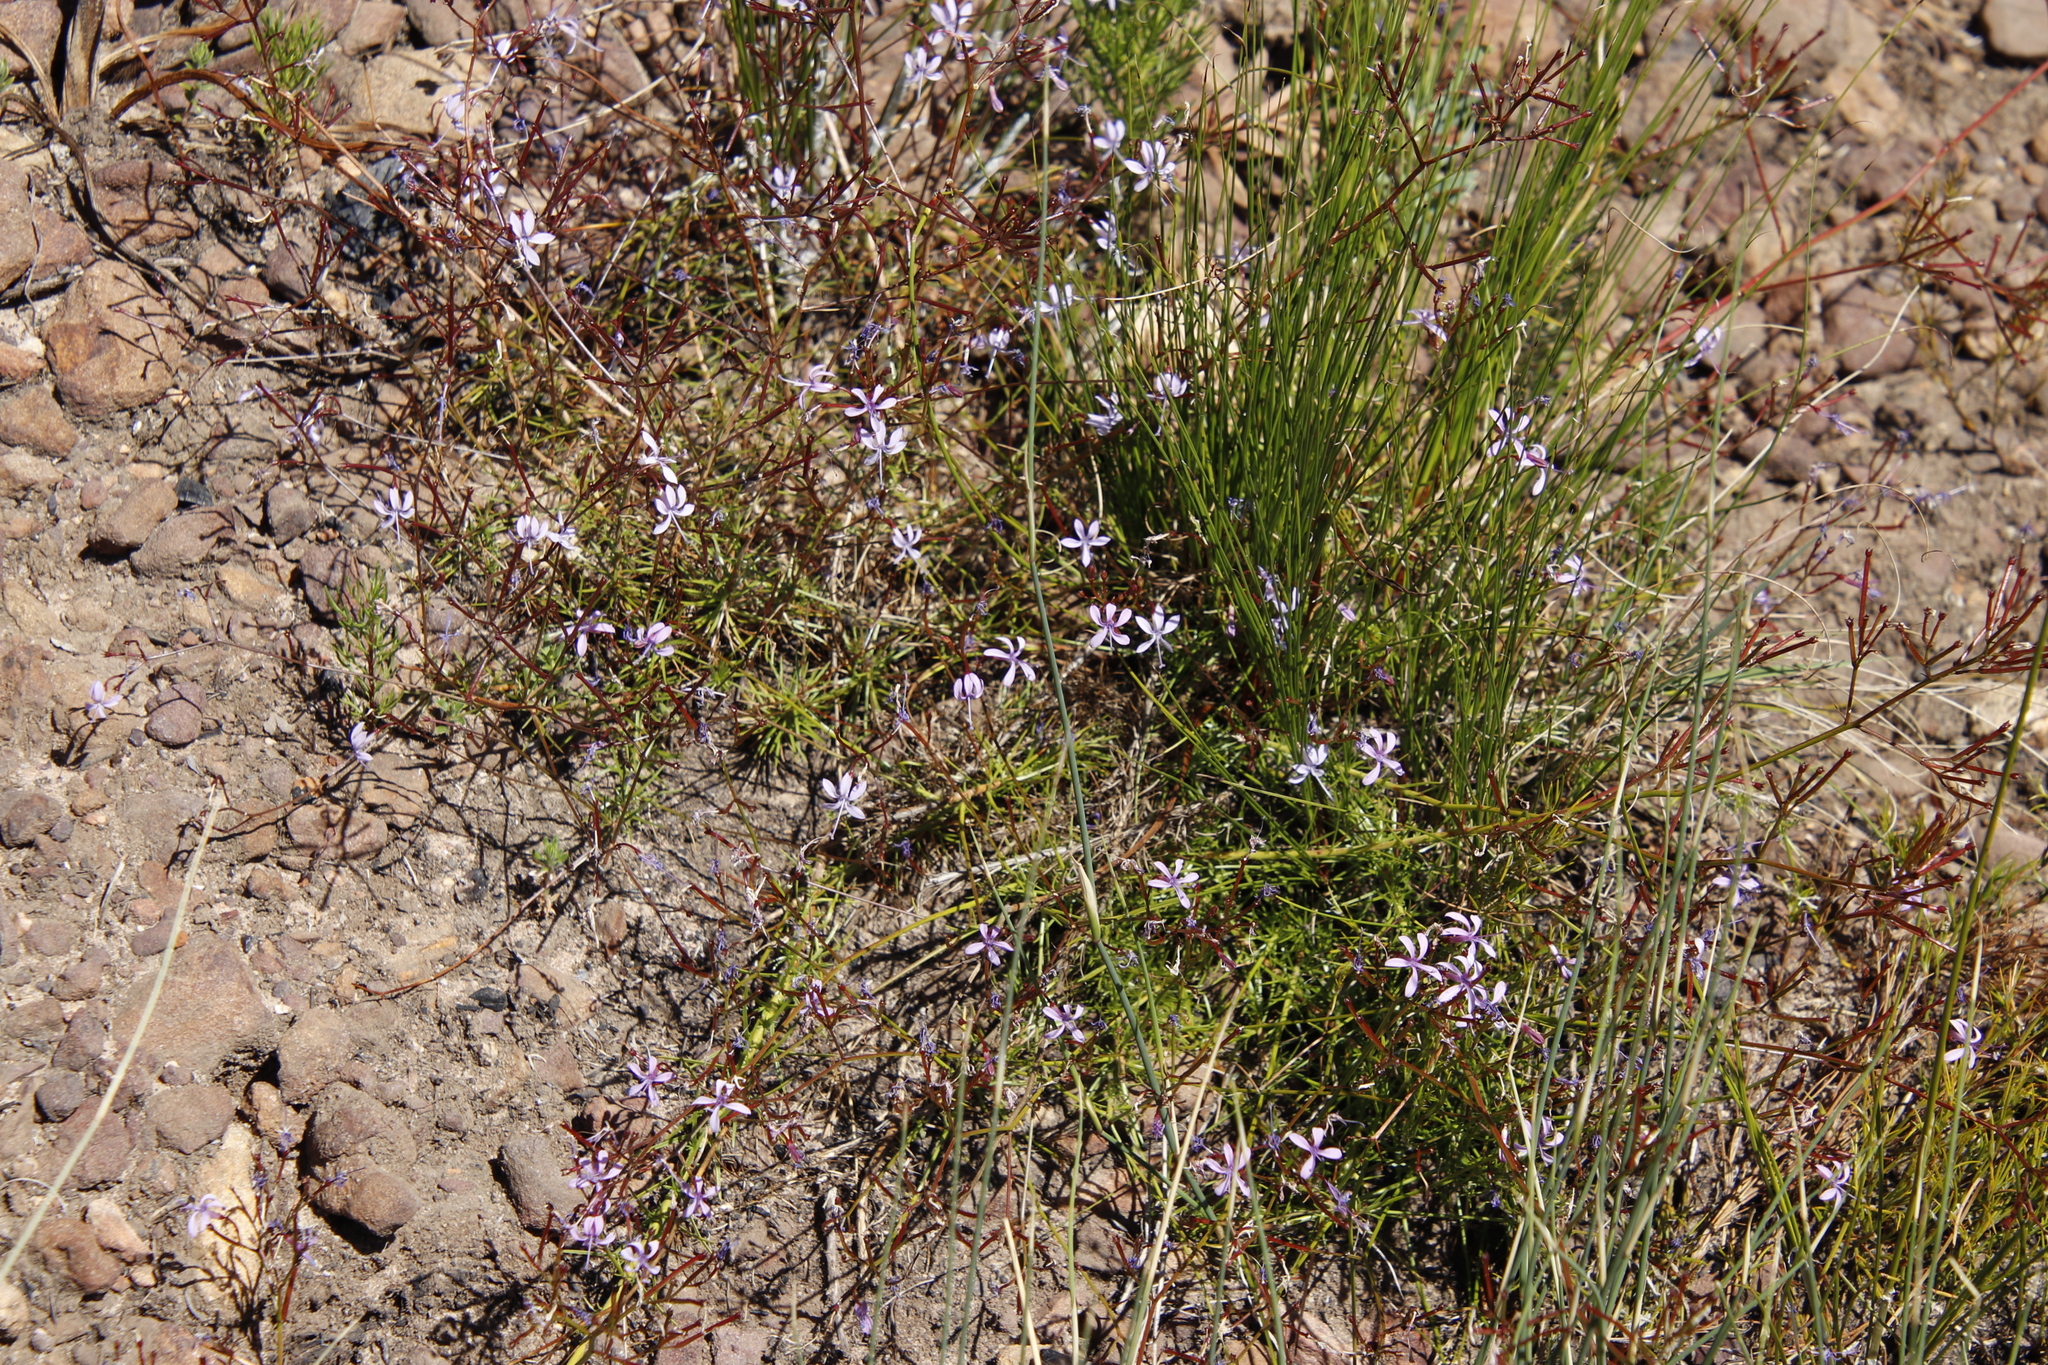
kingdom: Plantae
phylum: Tracheophyta
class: Magnoliopsida
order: Asterales
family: Campanulaceae
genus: Prismatocarpus
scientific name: Prismatocarpus diffusus
